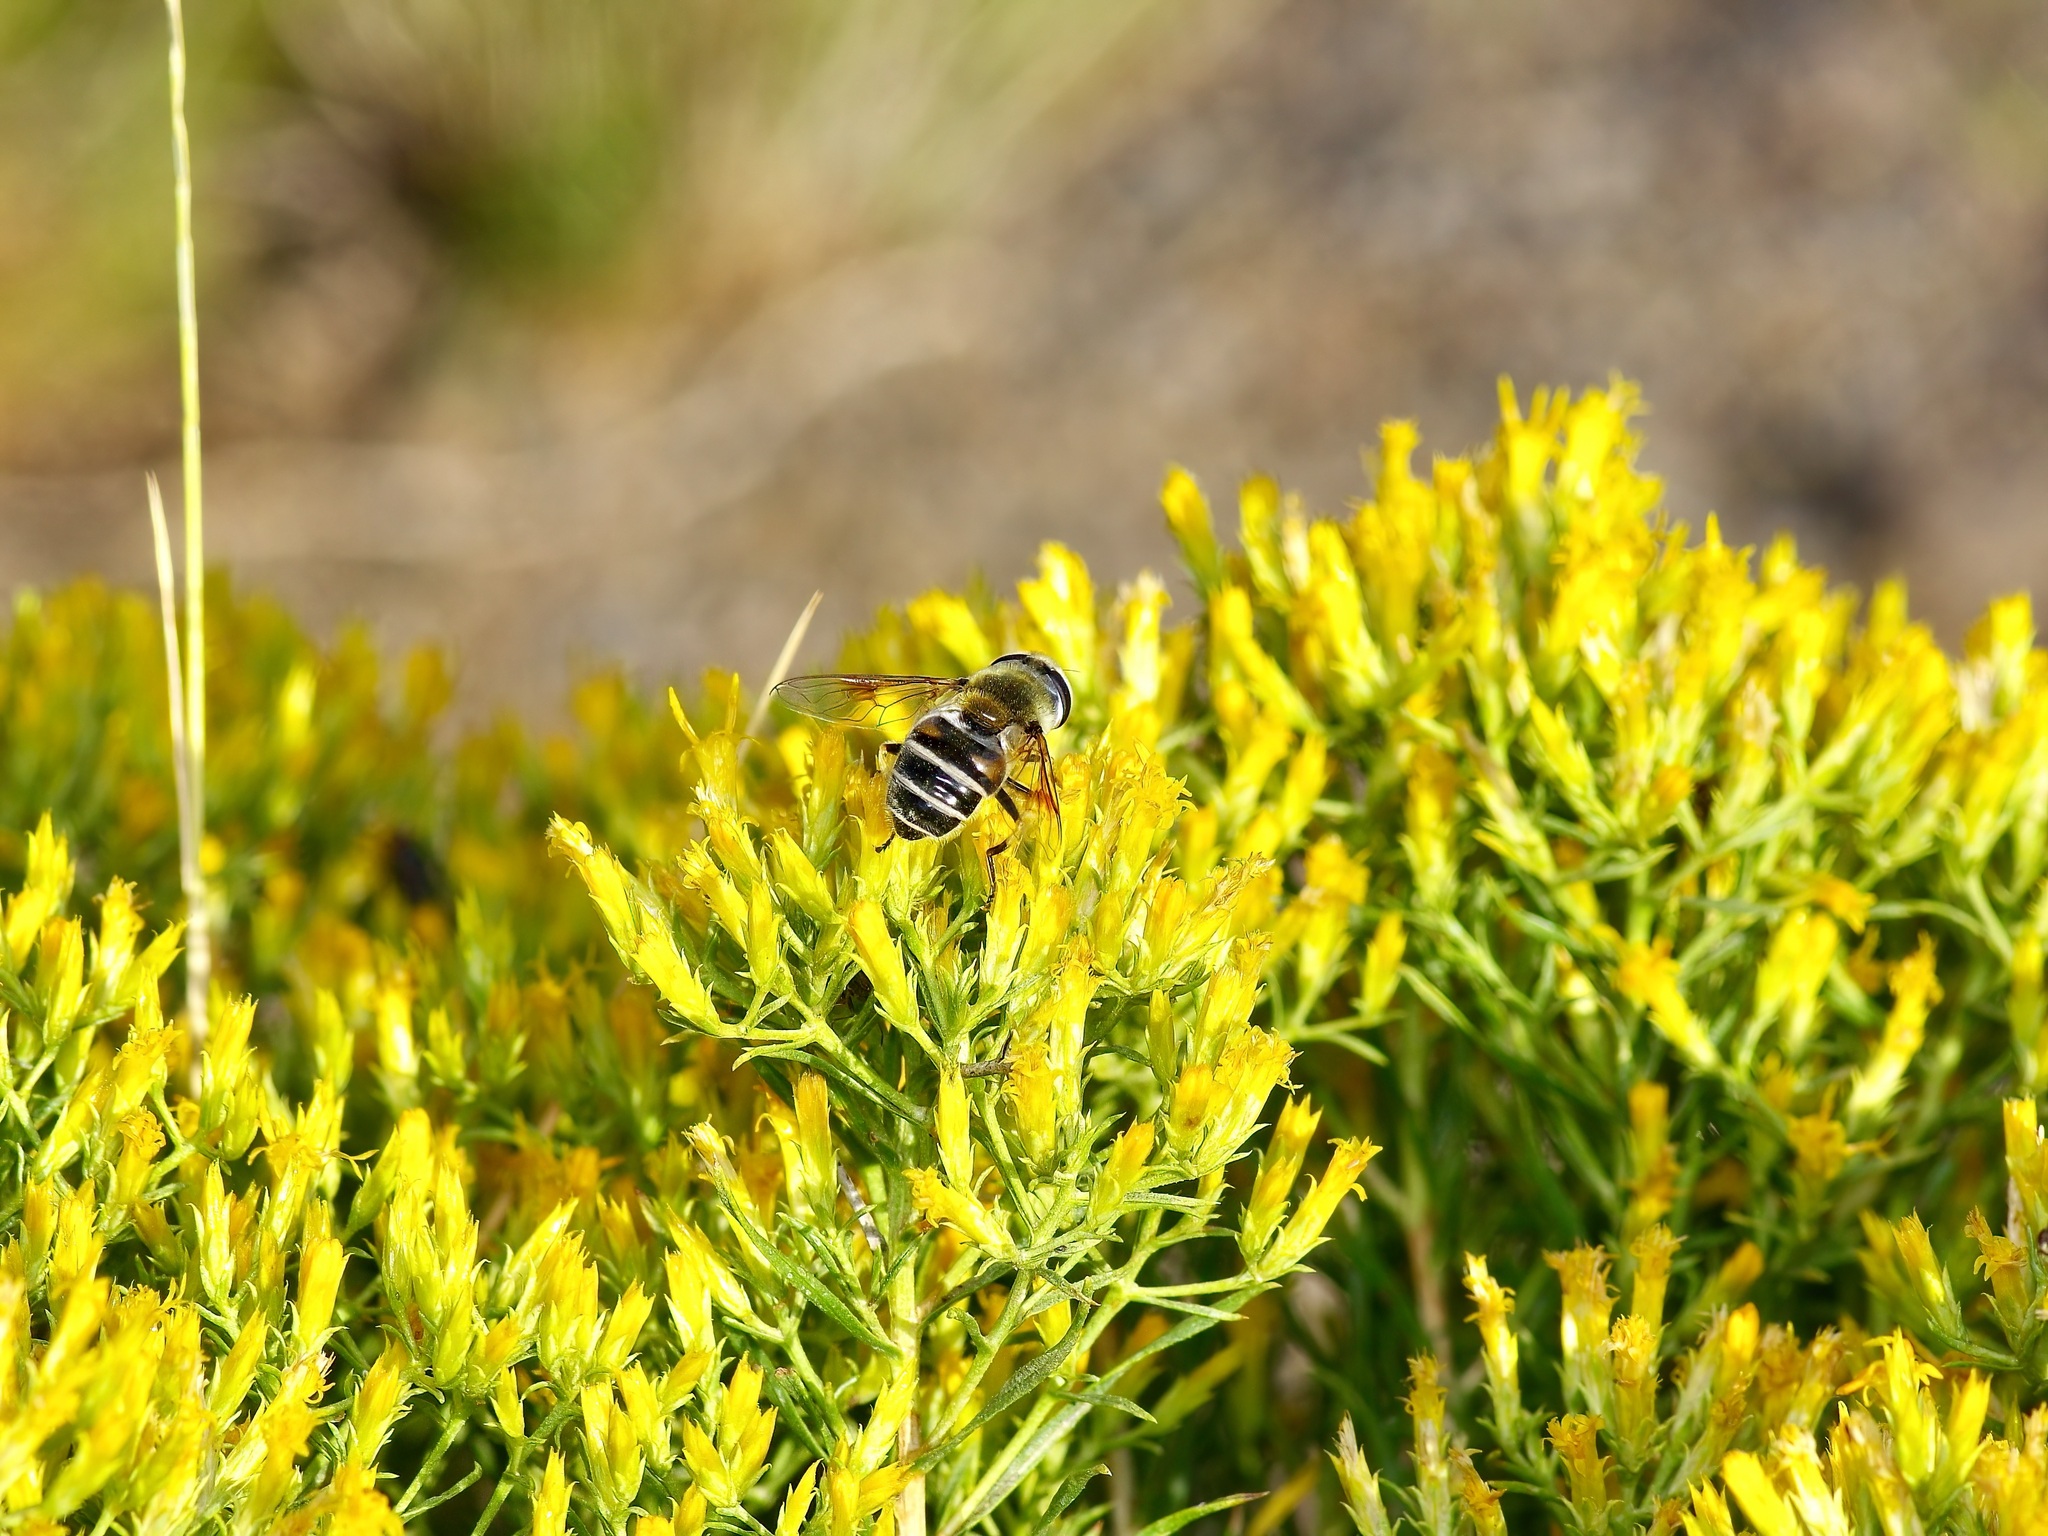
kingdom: Animalia
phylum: Arthropoda
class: Insecta
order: Diptera
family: Syrphidae
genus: Eristalis
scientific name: Eristalis stipator
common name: Yellow-shouldered drone fly
